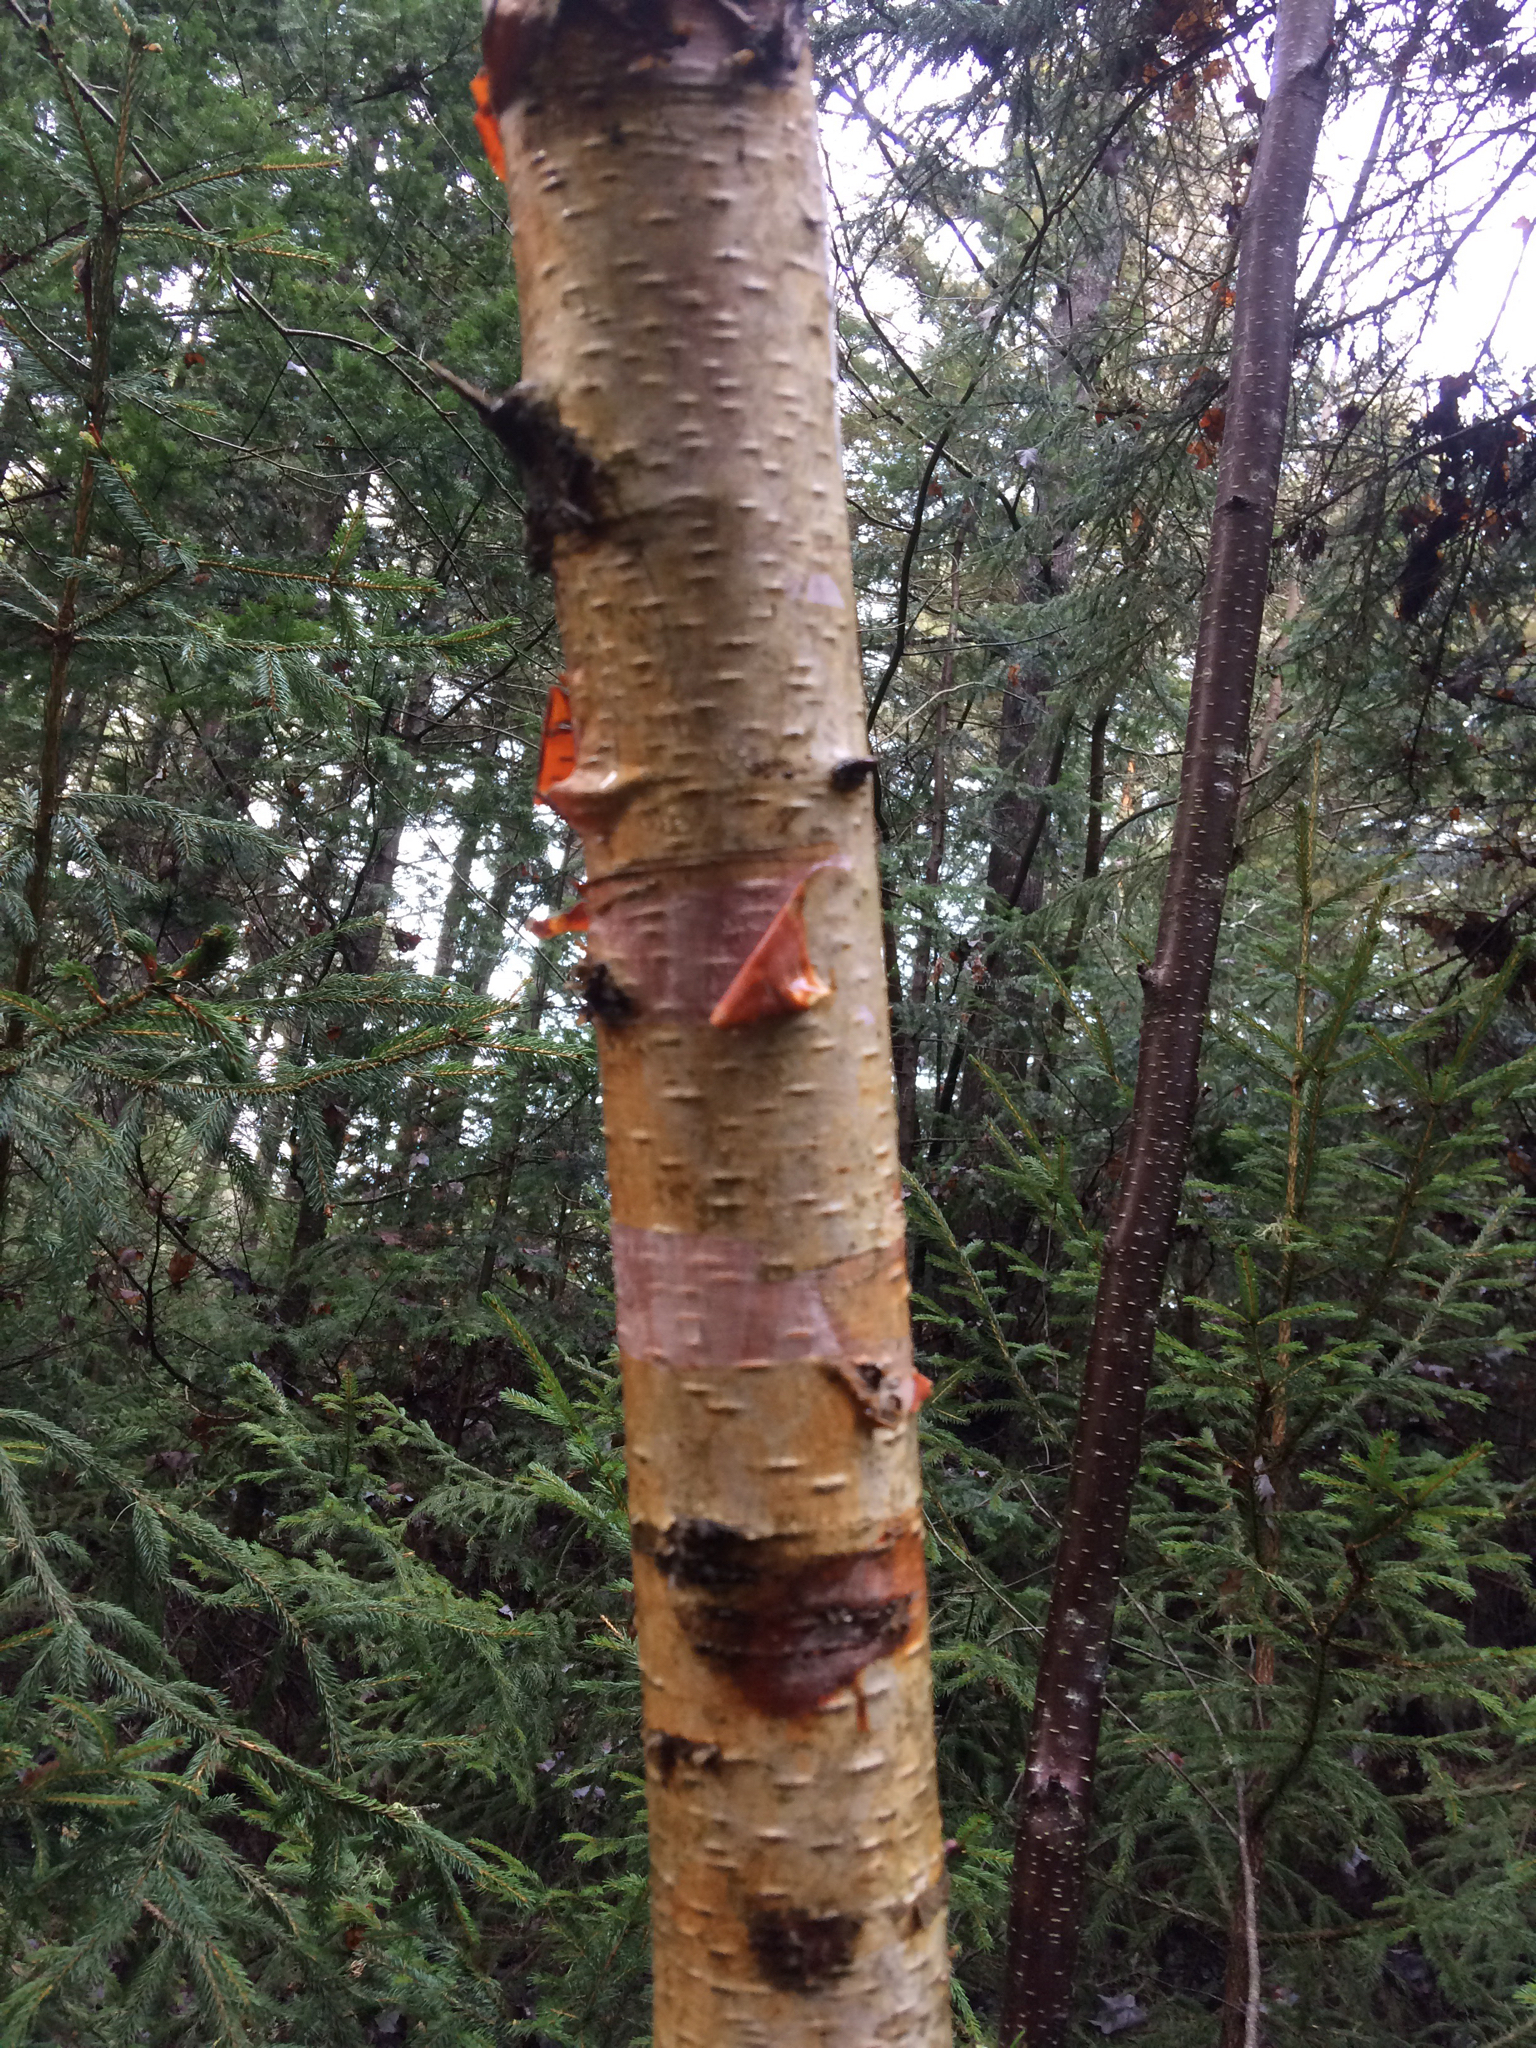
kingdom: Plantae
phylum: Tracheophyta
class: Magnoliopsida
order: Fagales
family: Betulaceae
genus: Betula
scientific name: Betula papyrifera
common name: Paper birch
